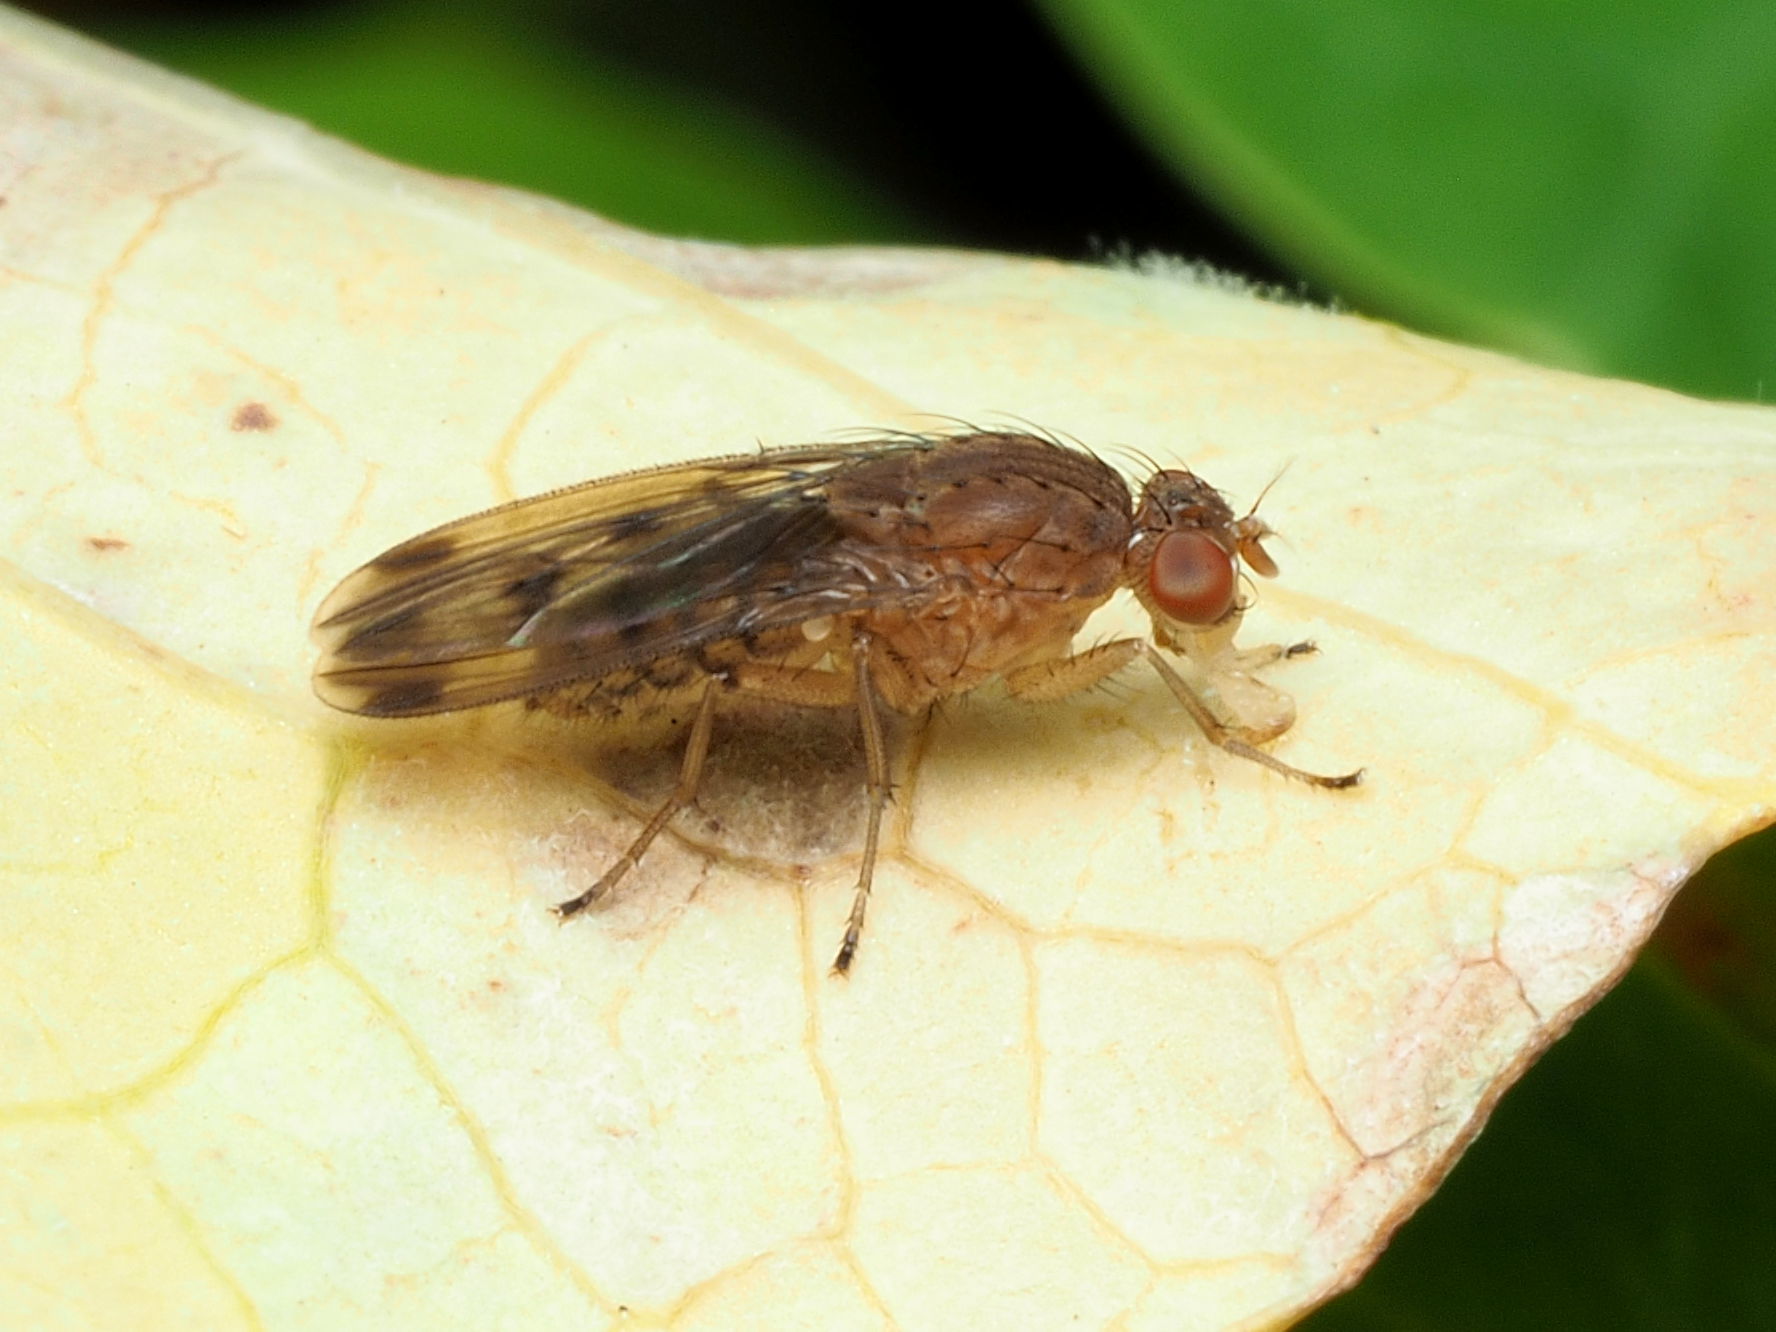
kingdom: Animalia
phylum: Arthropoda
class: Insecta
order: Diptera
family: Heleomyzidae
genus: Suillia
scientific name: Suillia variegata
